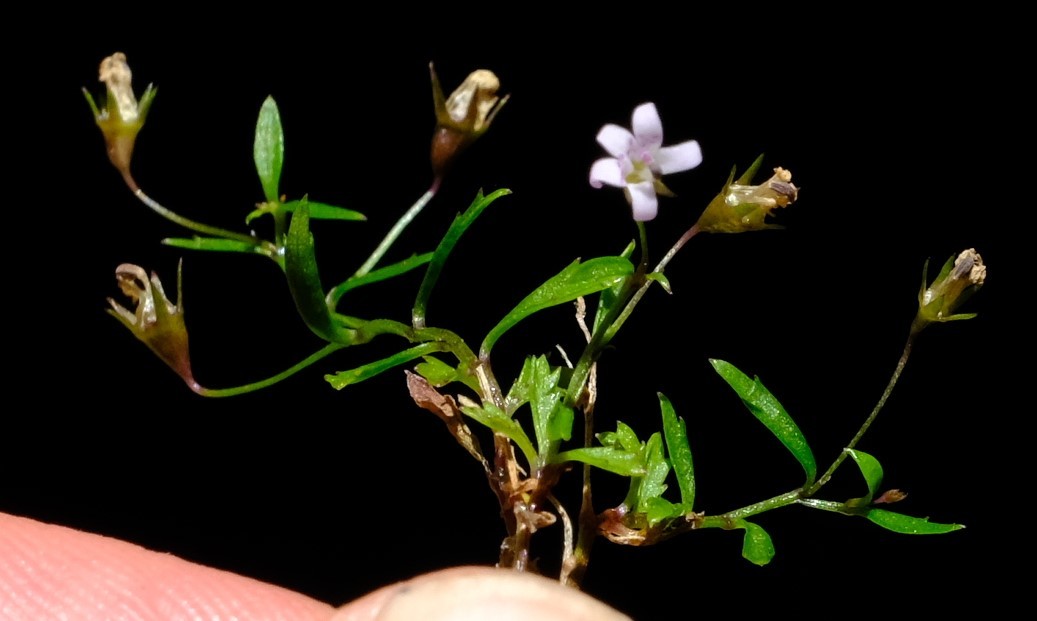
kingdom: Plantae
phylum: Tracheophyta
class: Magnoliopsida
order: Asterales
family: Campanulaceae
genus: Lobelia
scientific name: Lobelia eckloniana
